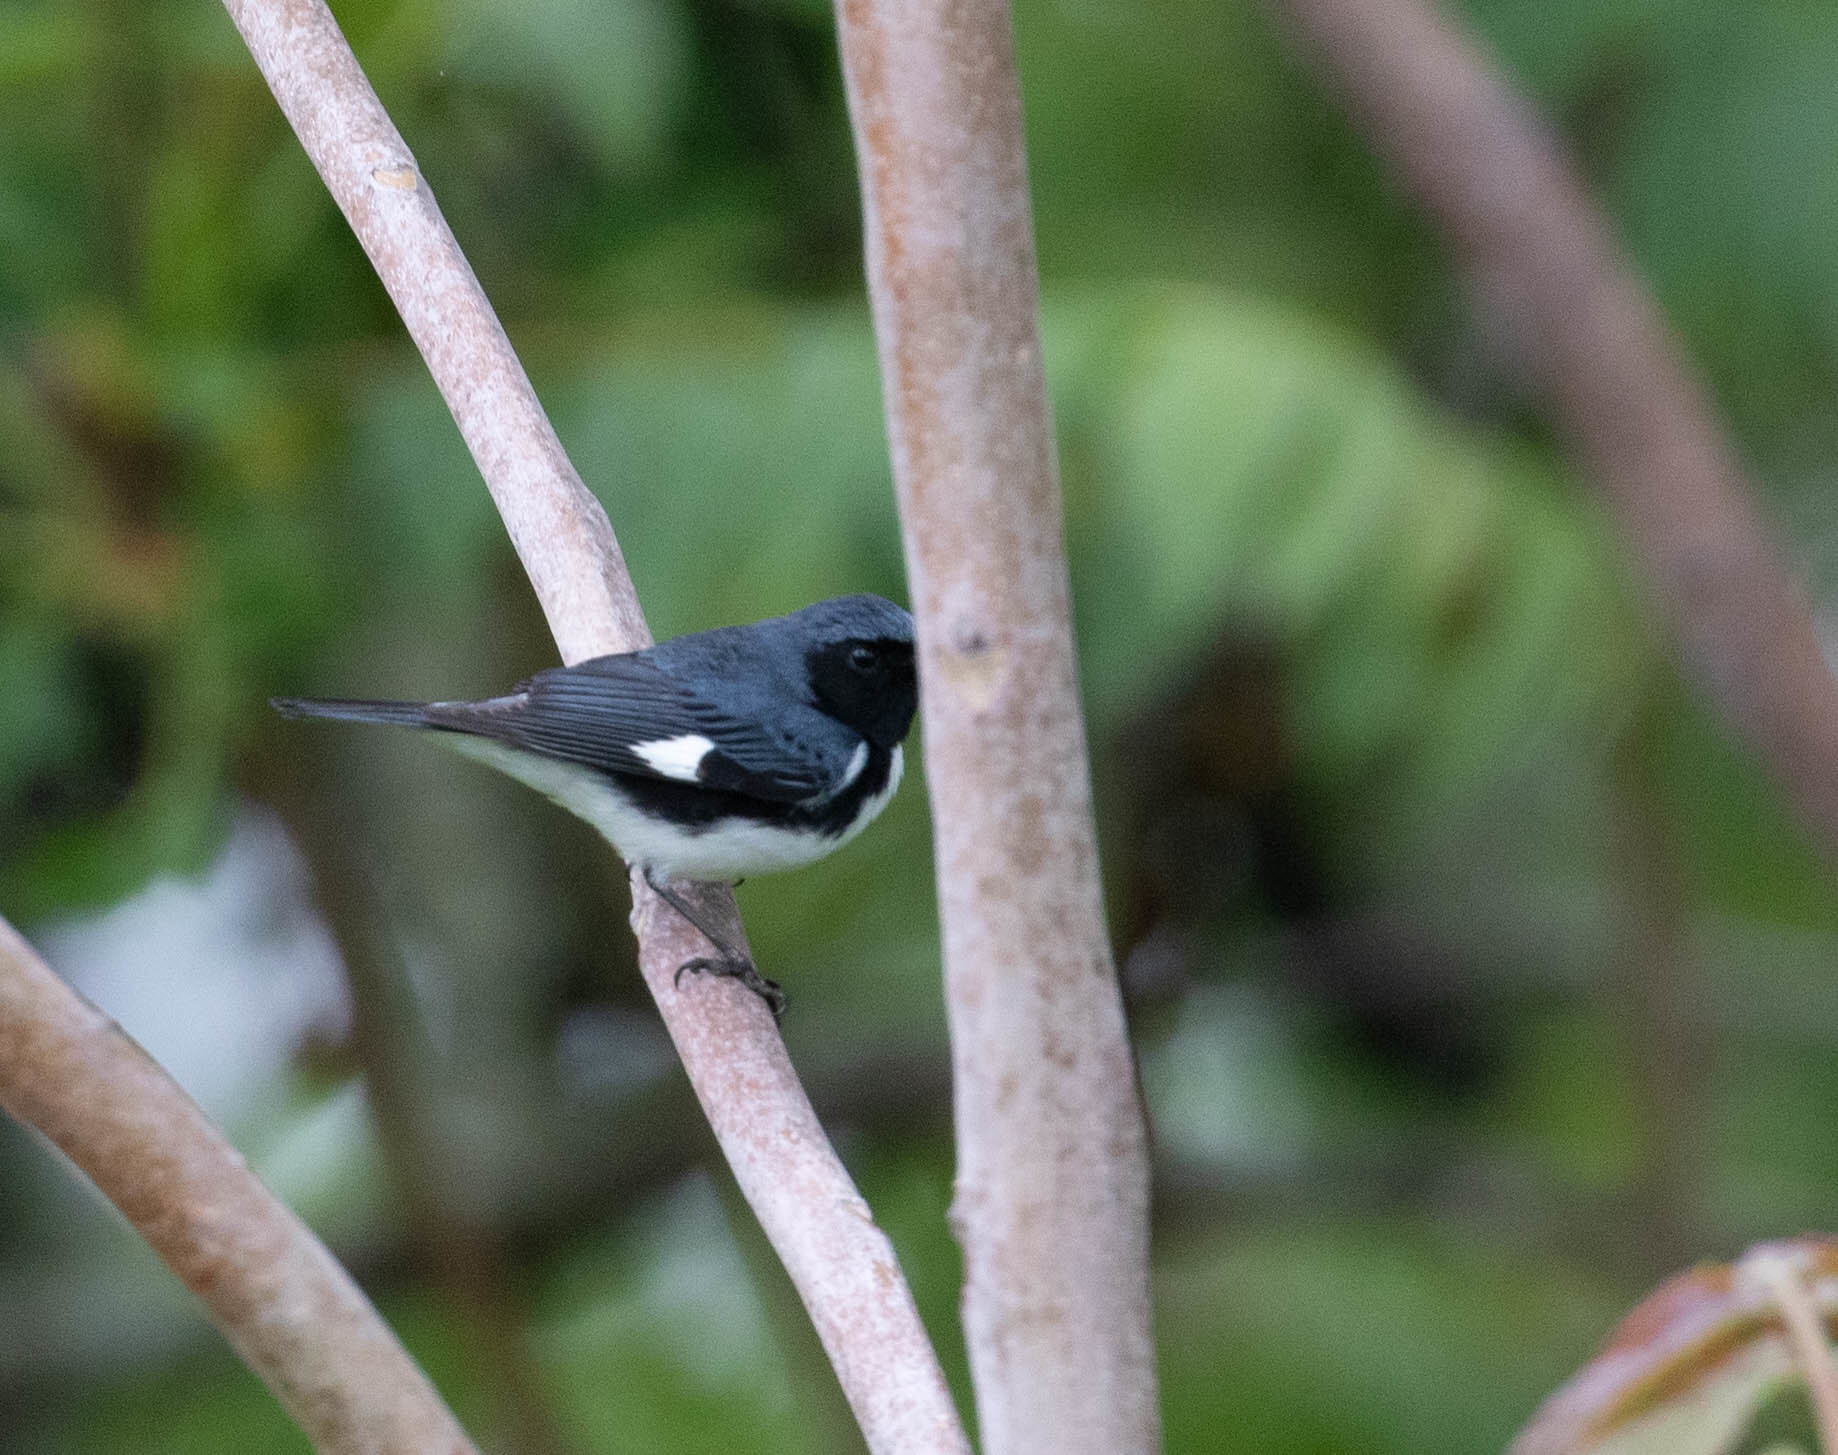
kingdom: Animalia
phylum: Chordata
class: Aves
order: Passeriformes
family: Parulidae
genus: Setophaga
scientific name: Setophaga caerulescens
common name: Black-throated blue warbler
